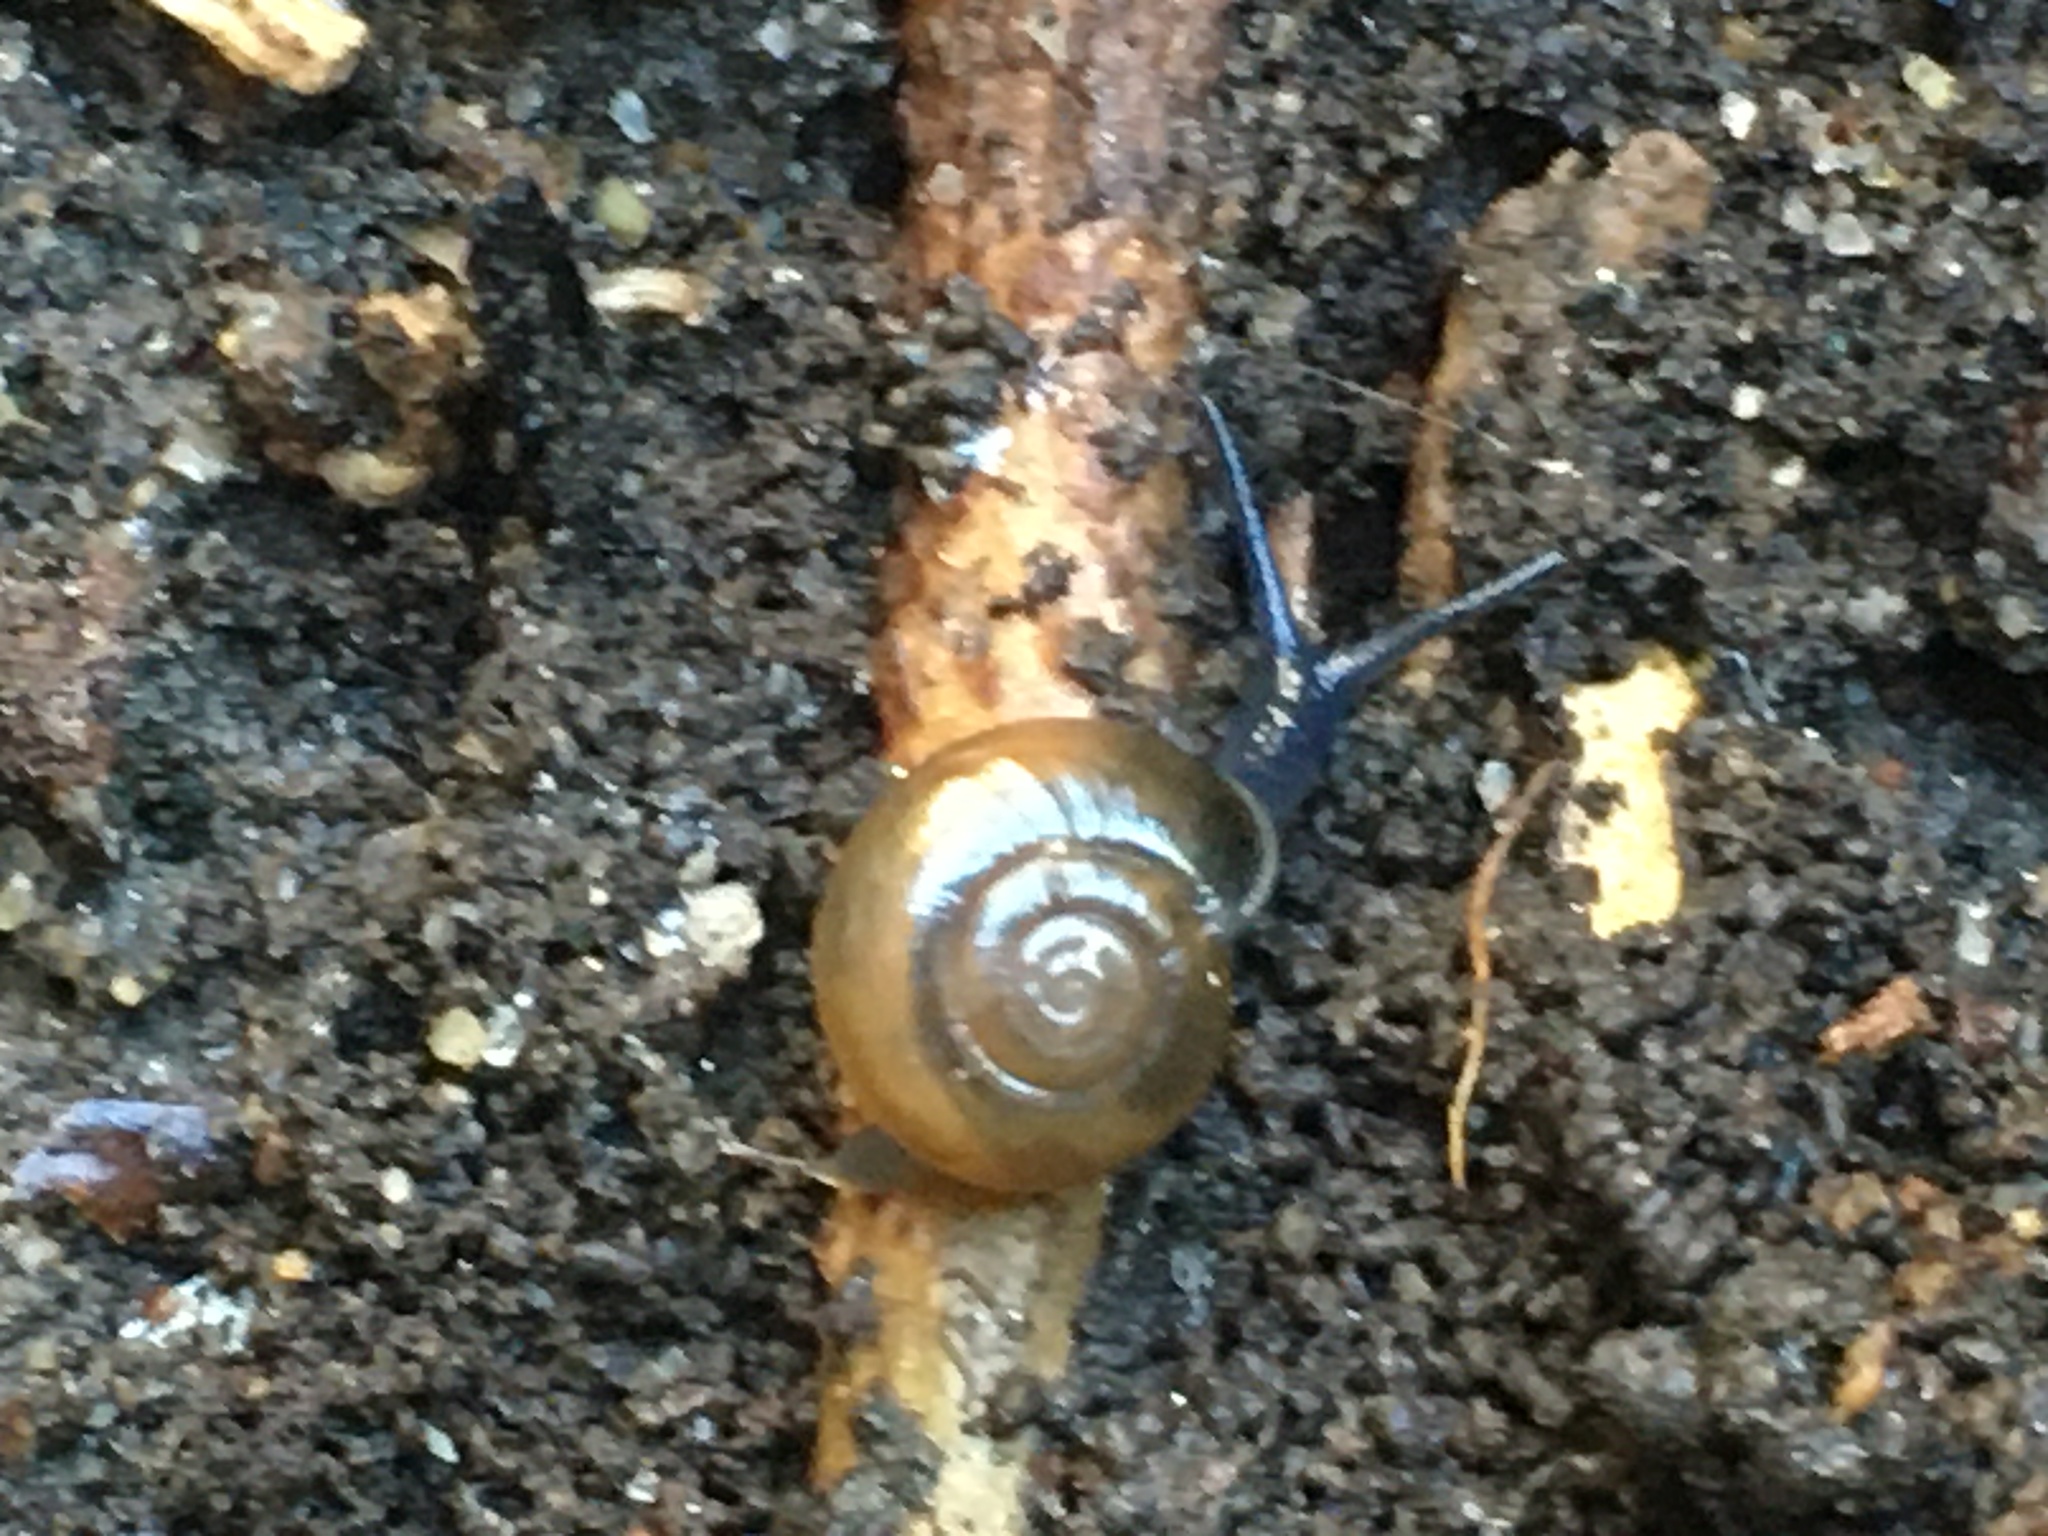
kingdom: Animalia
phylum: Mollusca
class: Gastropoda
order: Stylommatophora
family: Oxychilidae
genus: Oxychilus
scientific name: Oxychilus draparnaudi
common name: Draparnaud's glass snail
